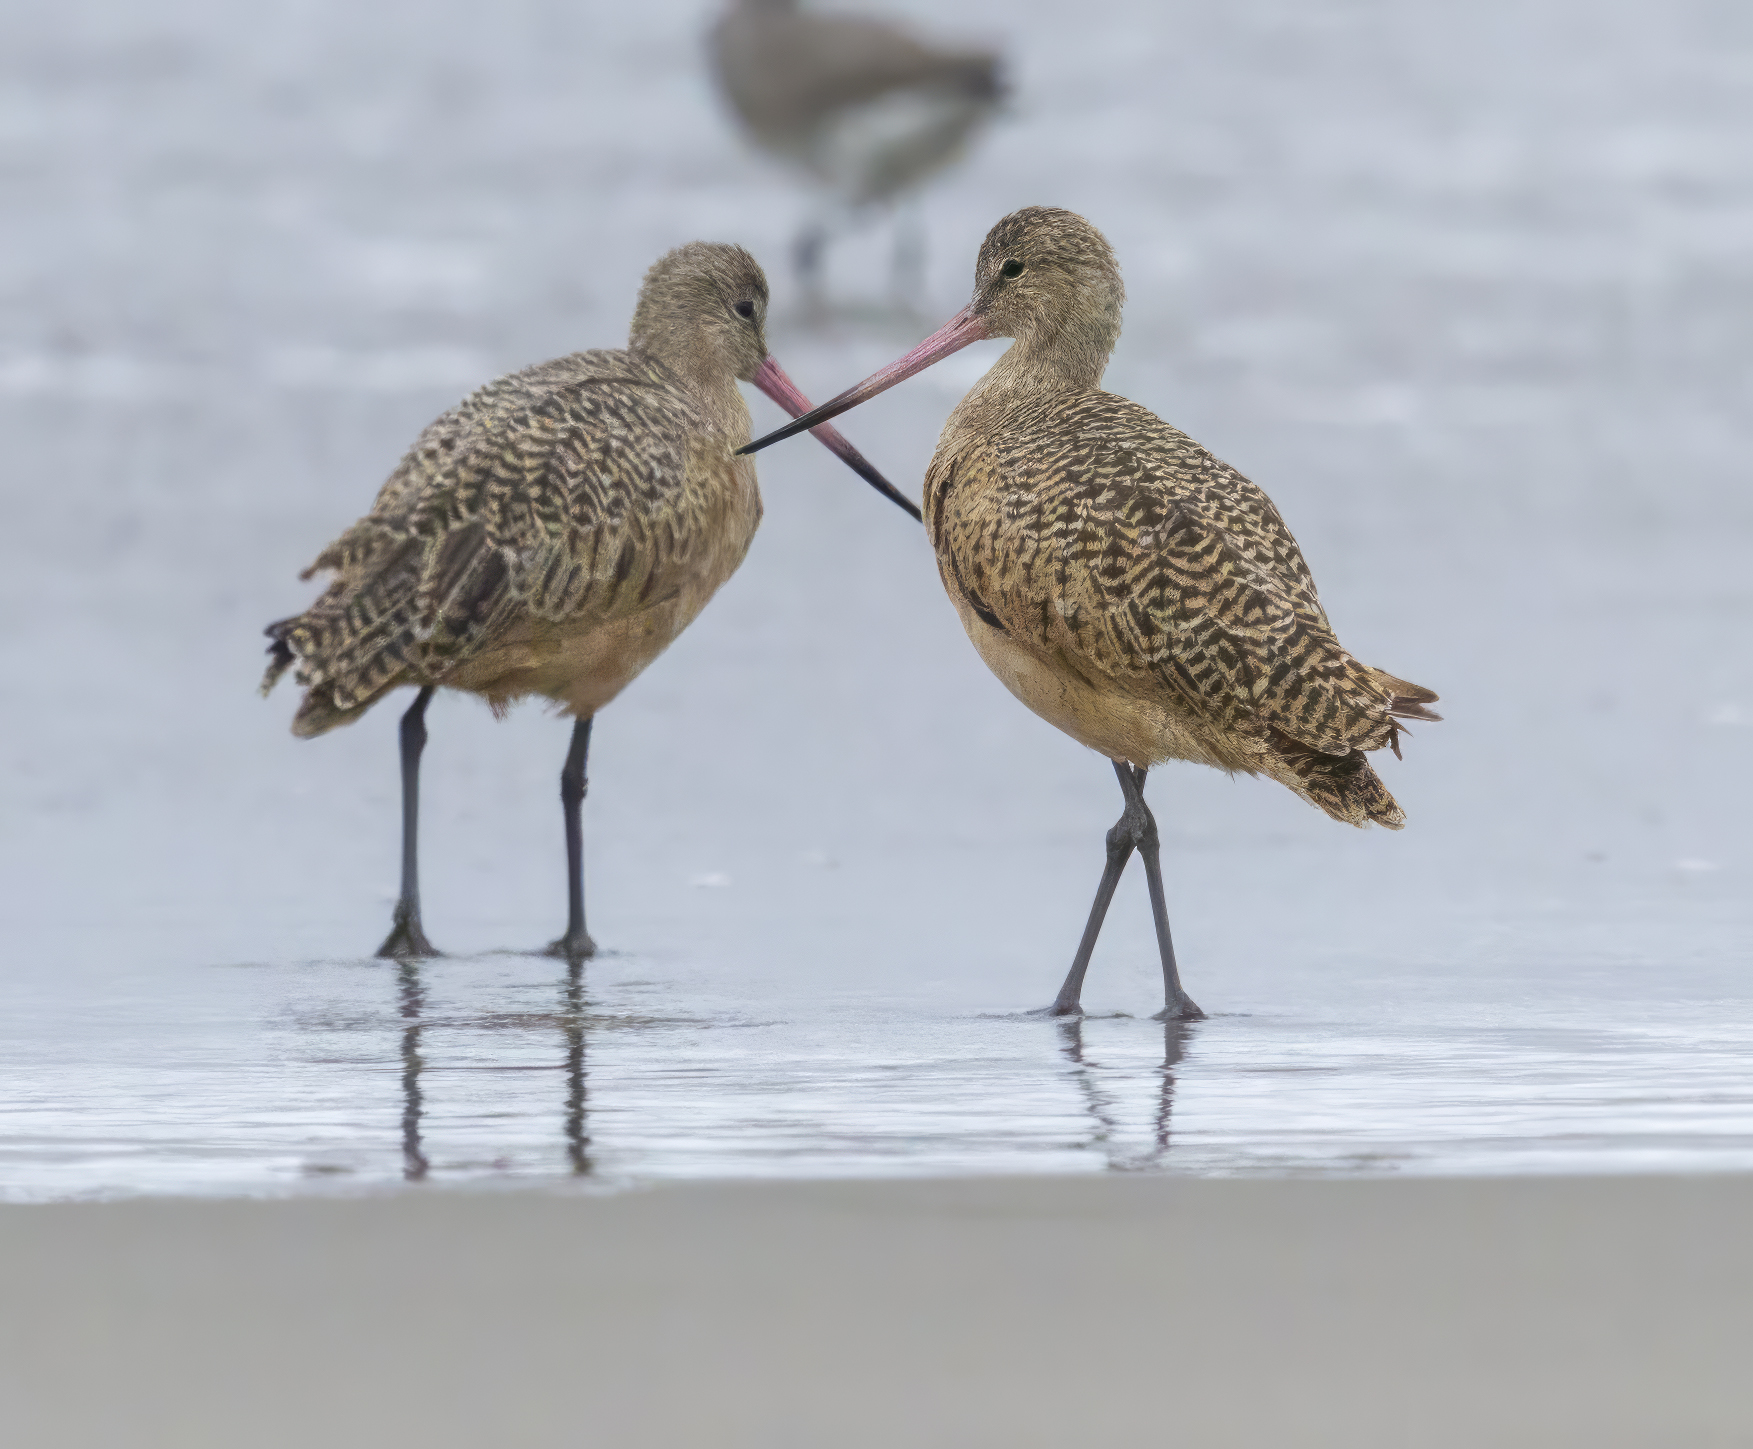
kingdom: Animalia
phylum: Chordata
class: Aves
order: Charadriiformes
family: Scolopacidae
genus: Limosa
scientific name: Limosa fedoa
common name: Marbled godwit
